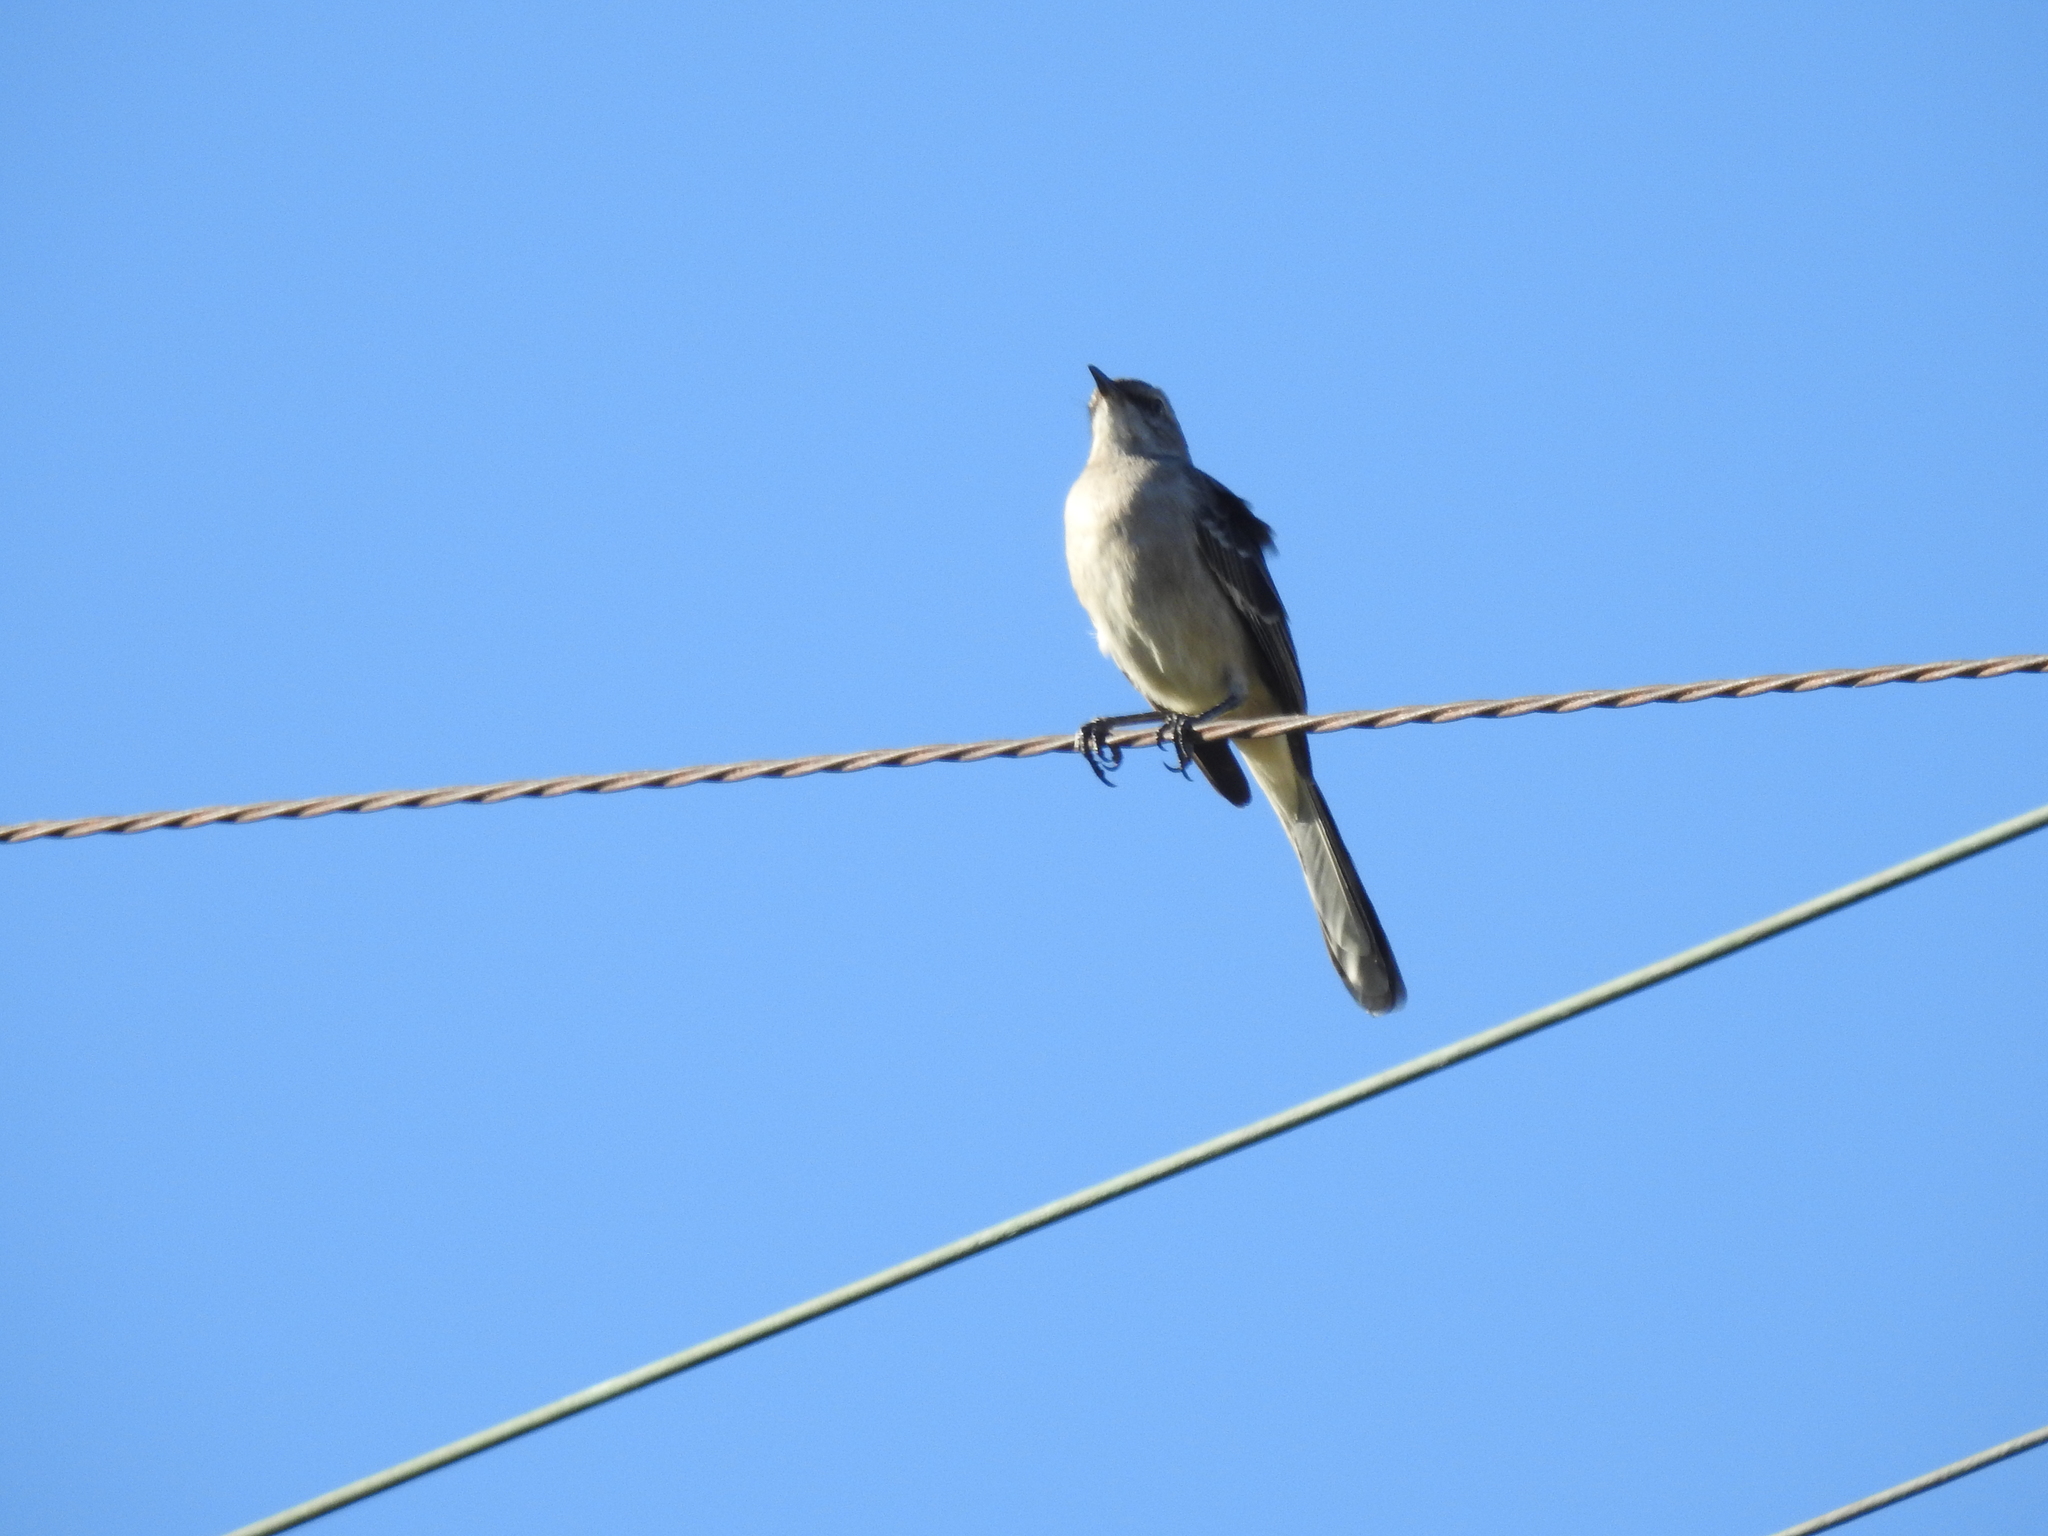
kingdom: Animalia
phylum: Chordata
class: Aves
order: Passeriformes
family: Mimidae
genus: Mimus
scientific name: Mimus polyglottos
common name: Northern mockingbird
